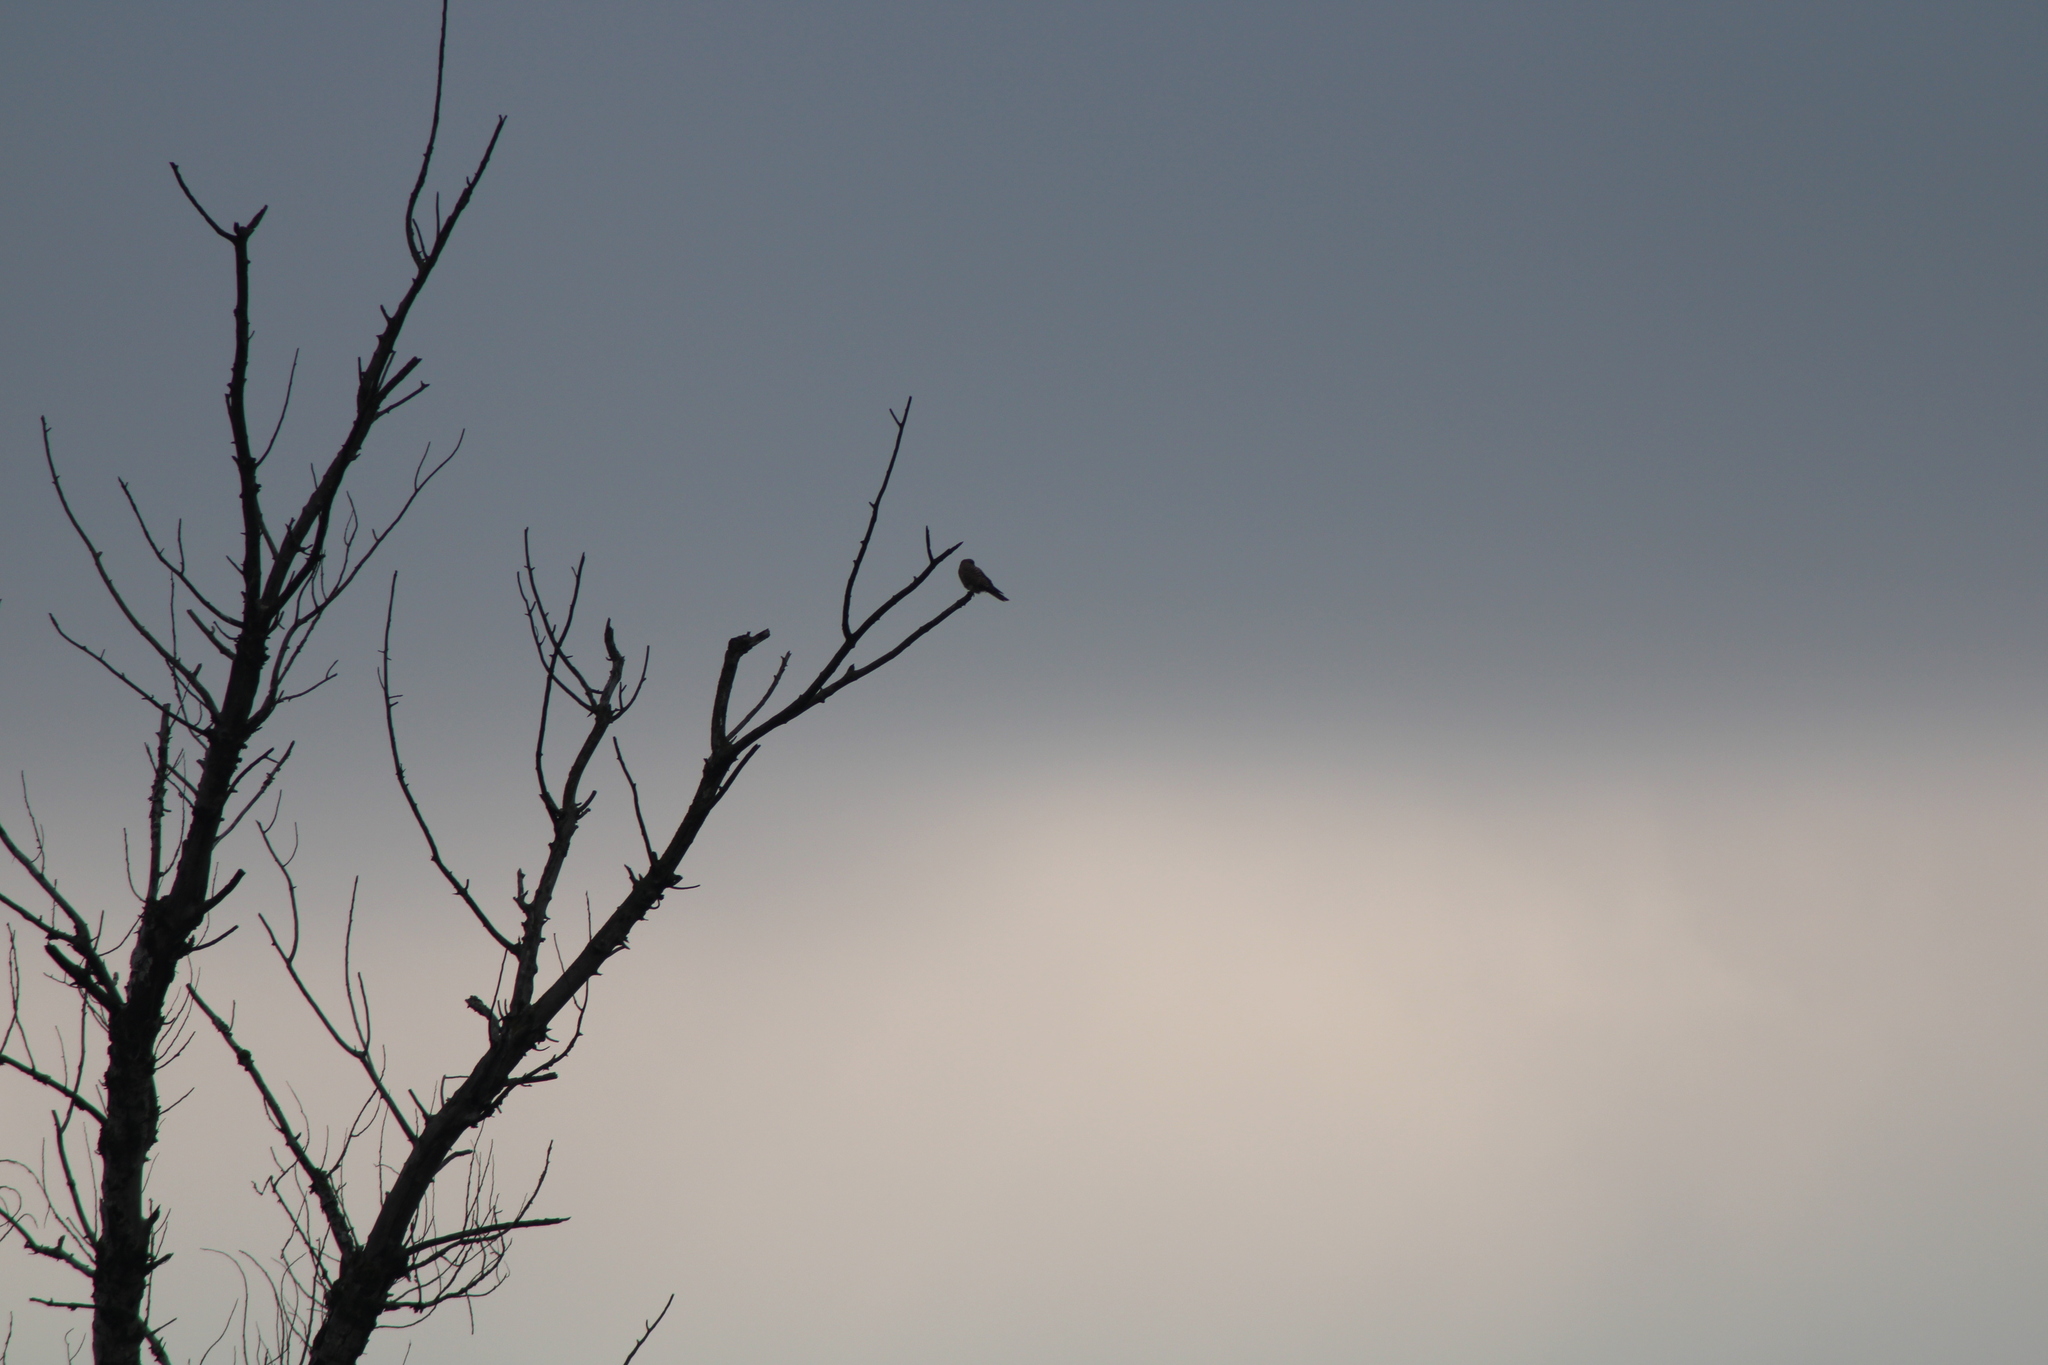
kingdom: Animalia
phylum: Chordata
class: Aves
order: Falconiformes
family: Falconidae
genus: Falco
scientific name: Falco tinnunculus
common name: Common kestrel
